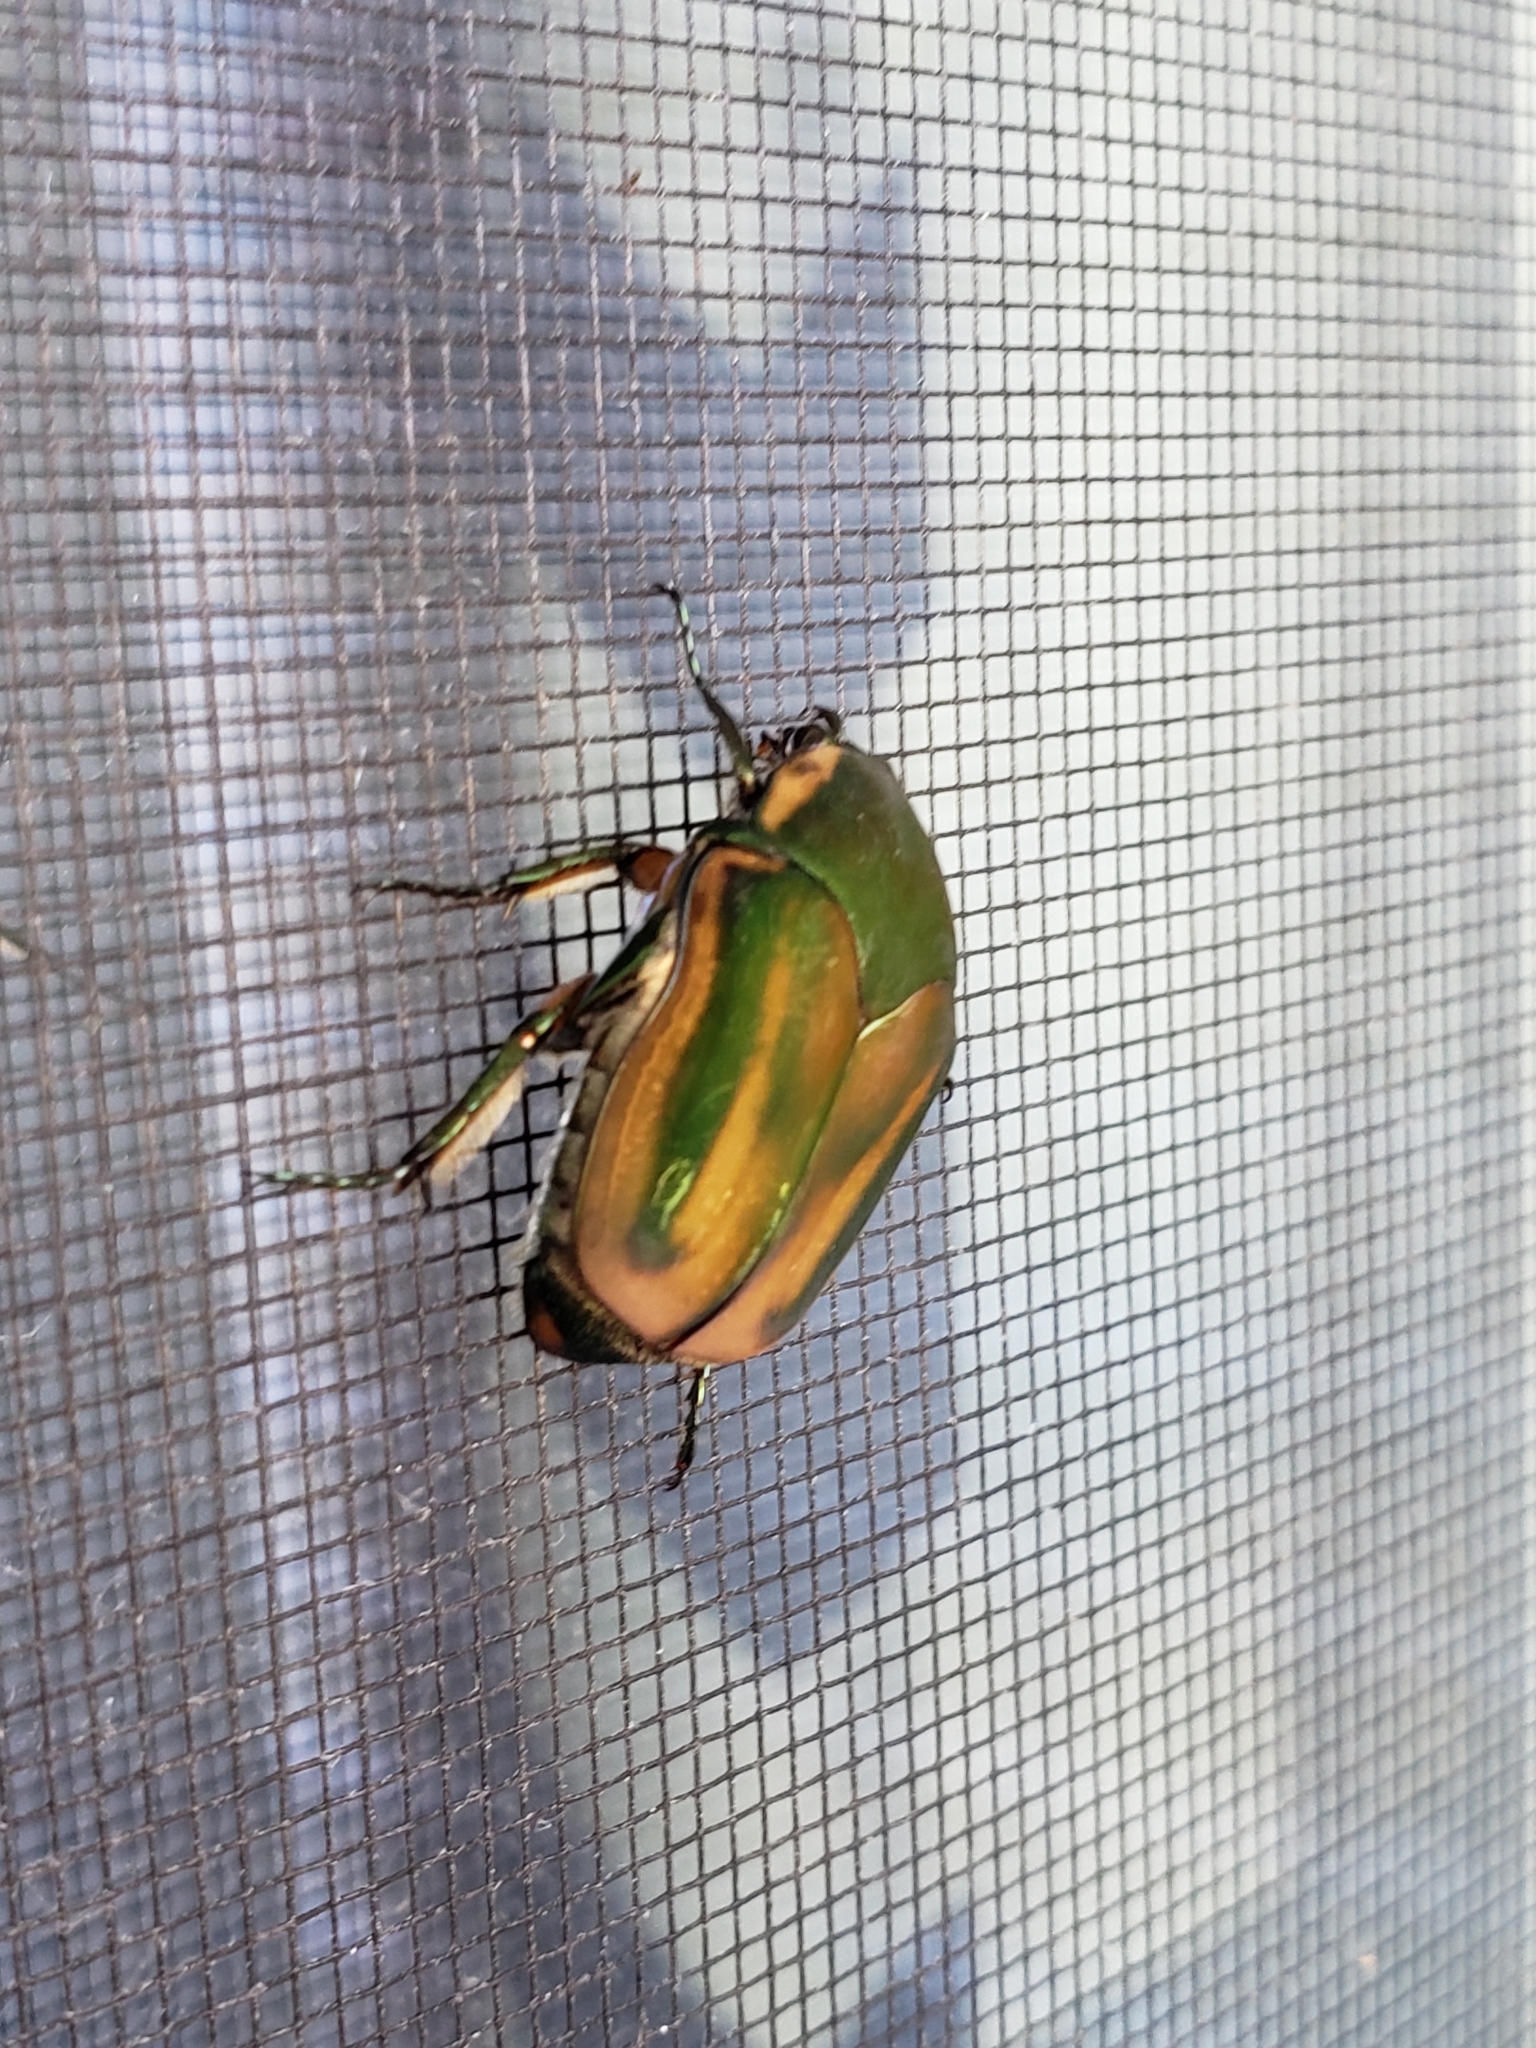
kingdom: Animalia
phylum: Arthropoda
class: Insecta
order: Coleoptera
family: Scarabaeidae
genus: Cotinis
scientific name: Cotinis nitida
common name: Common green june beetle
